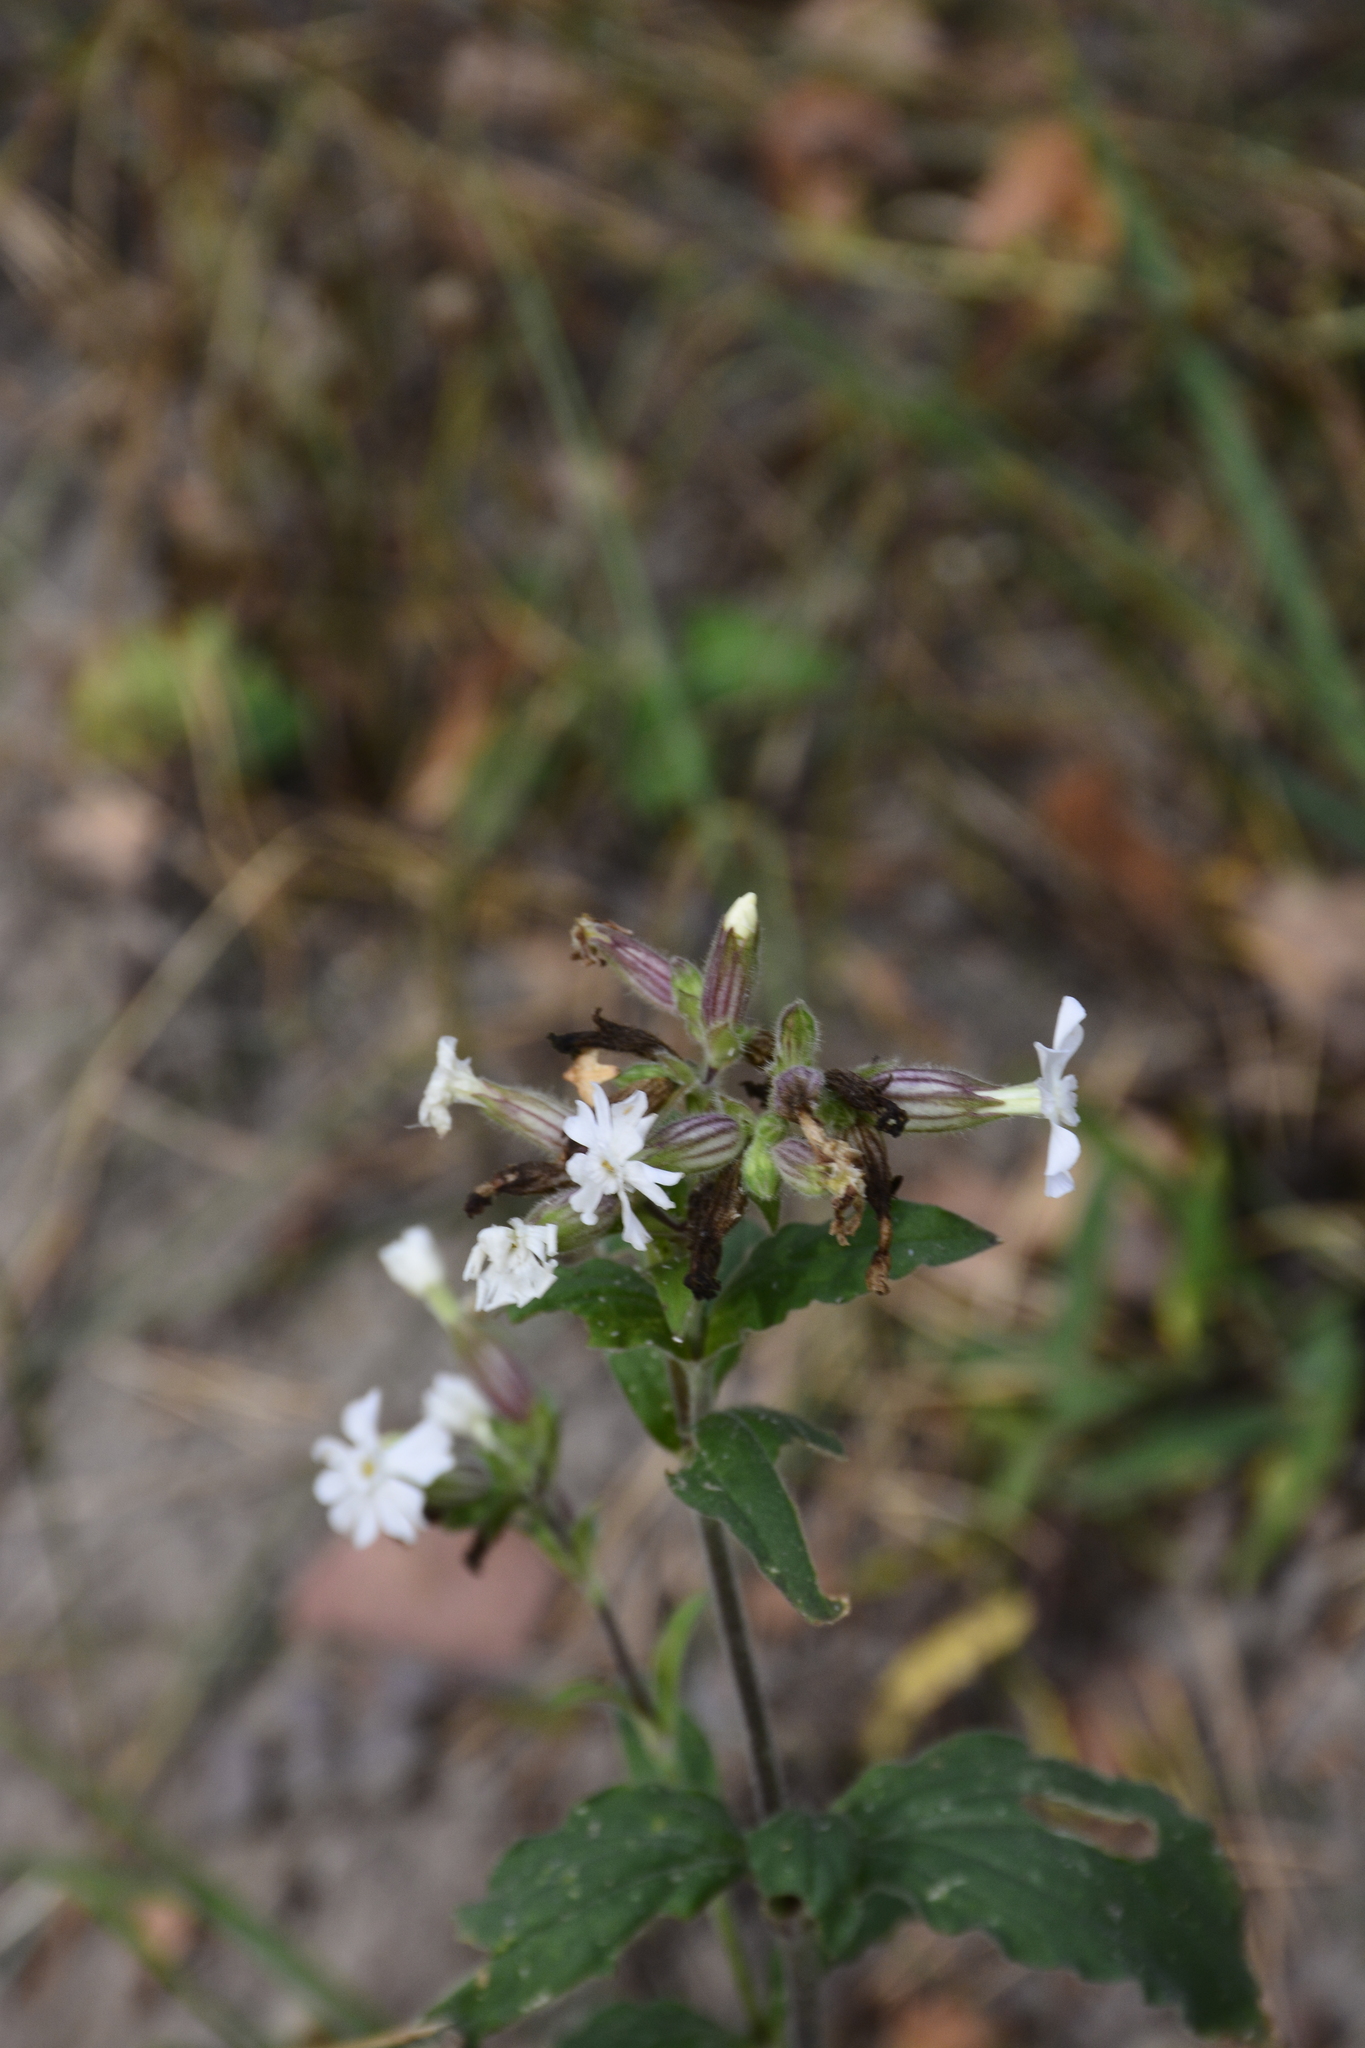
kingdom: Plantae
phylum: Tracheophyta
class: Magnoliopsida
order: Caryophyllales
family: Caryophyllaceae
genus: Silene
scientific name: Silene latifolia
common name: White campion
